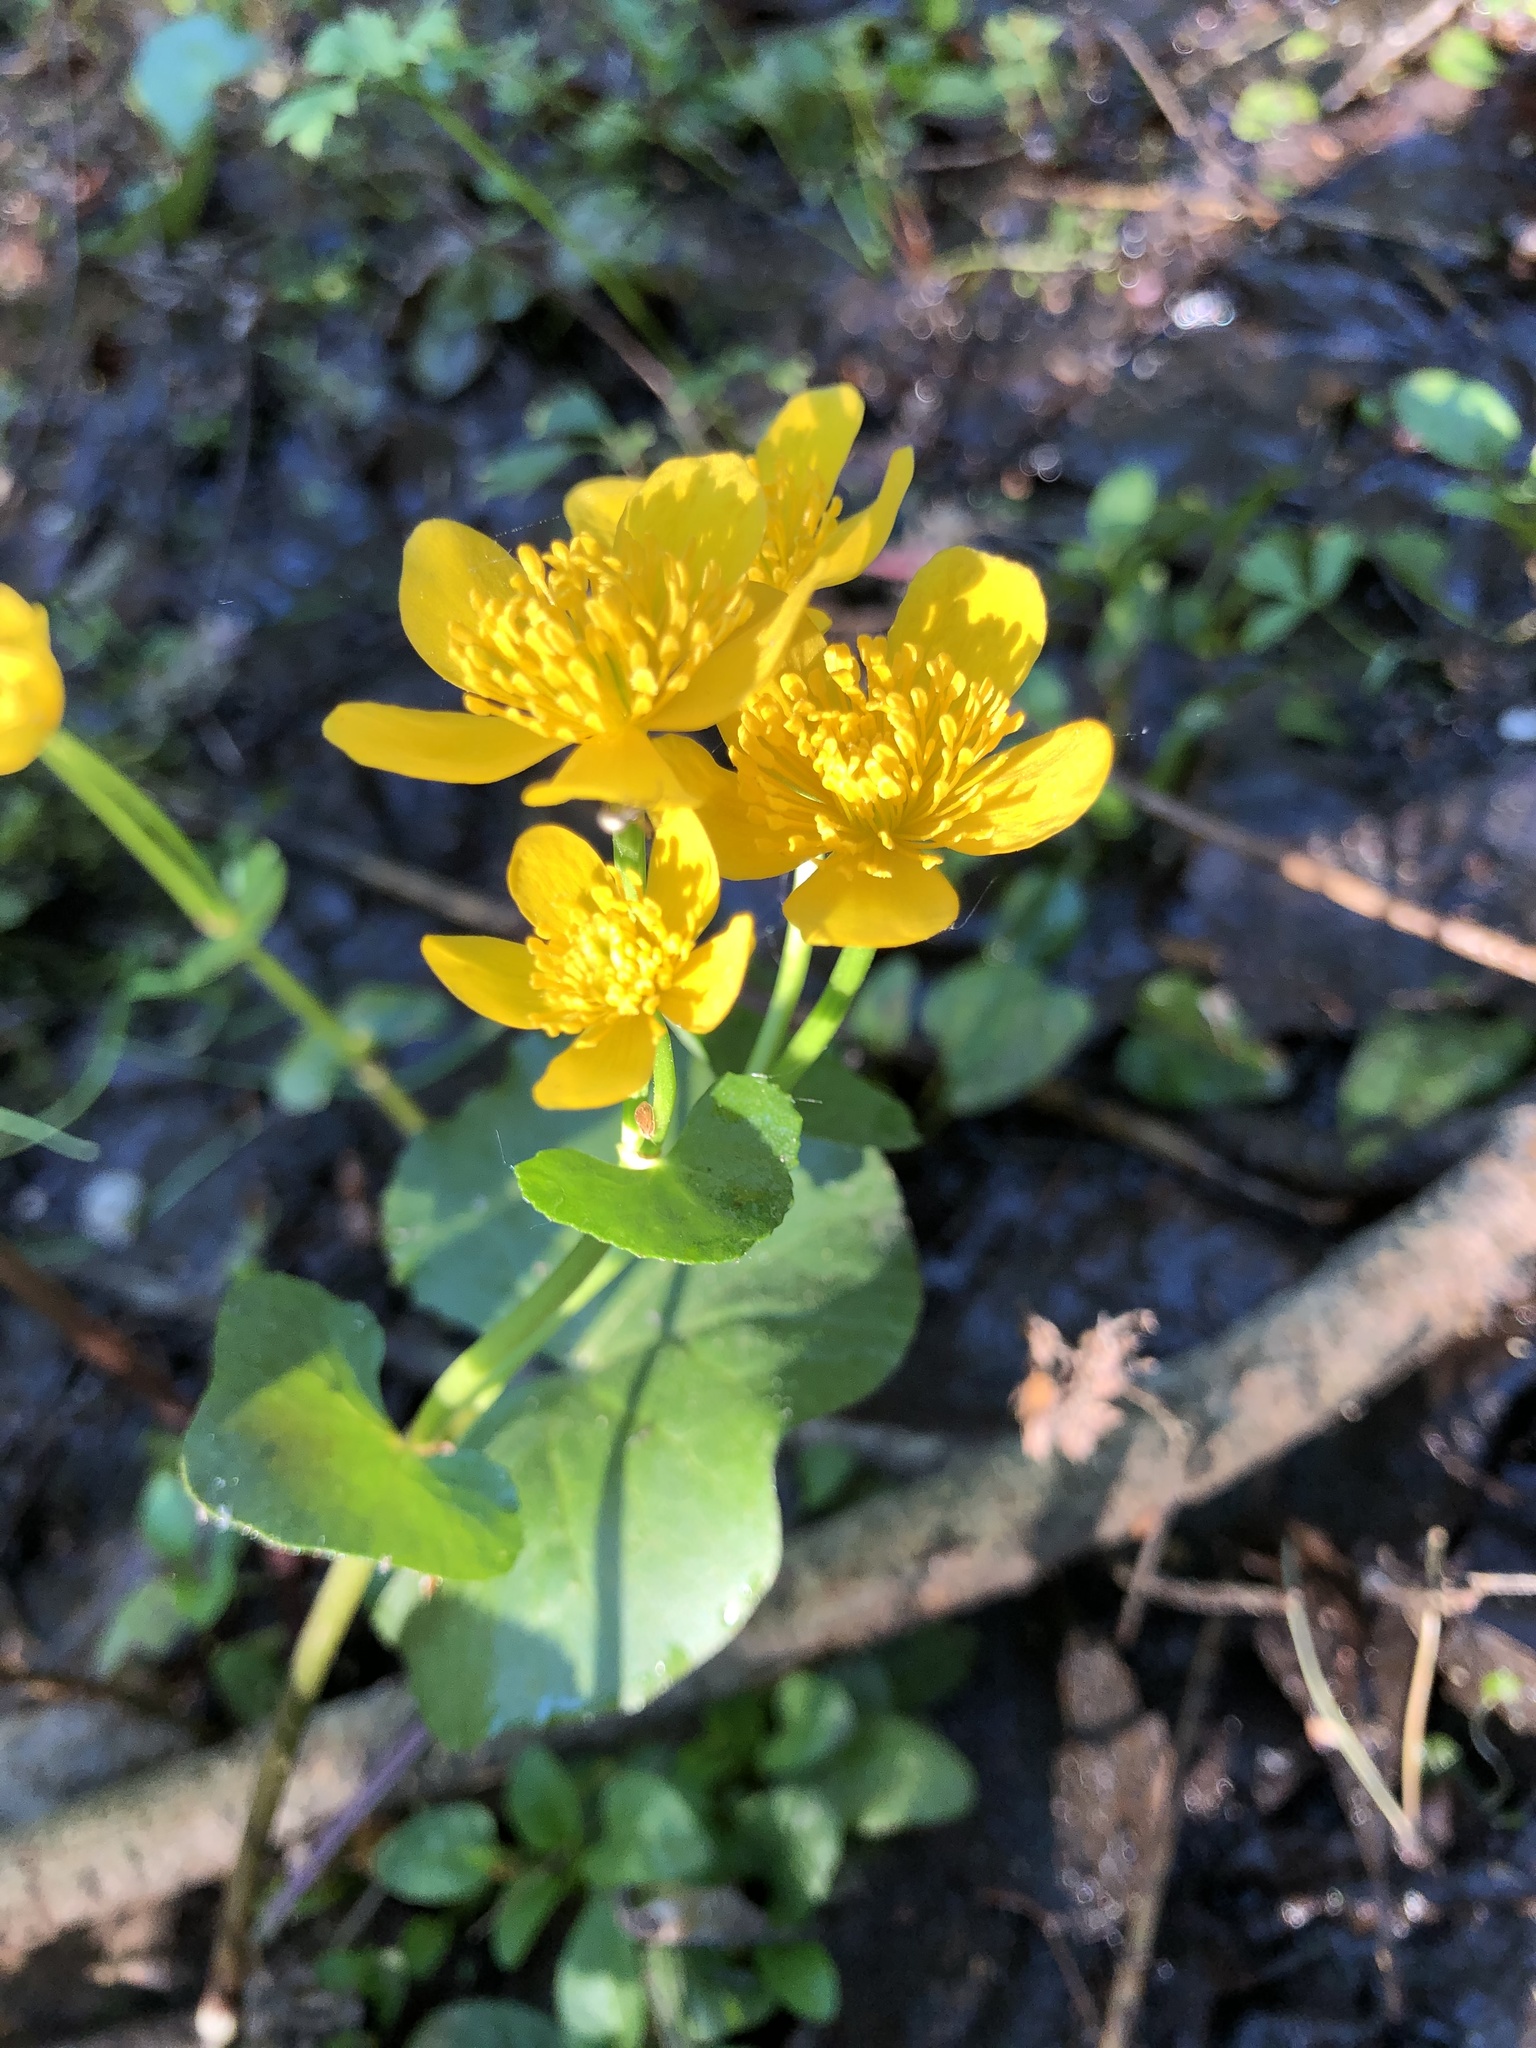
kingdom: Plantae
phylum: Tracheophyta
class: Magnoliopsida
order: Ranunculales
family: Ranunculaceae
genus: Caltha
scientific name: Caltha palustris
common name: Marsh marigold
